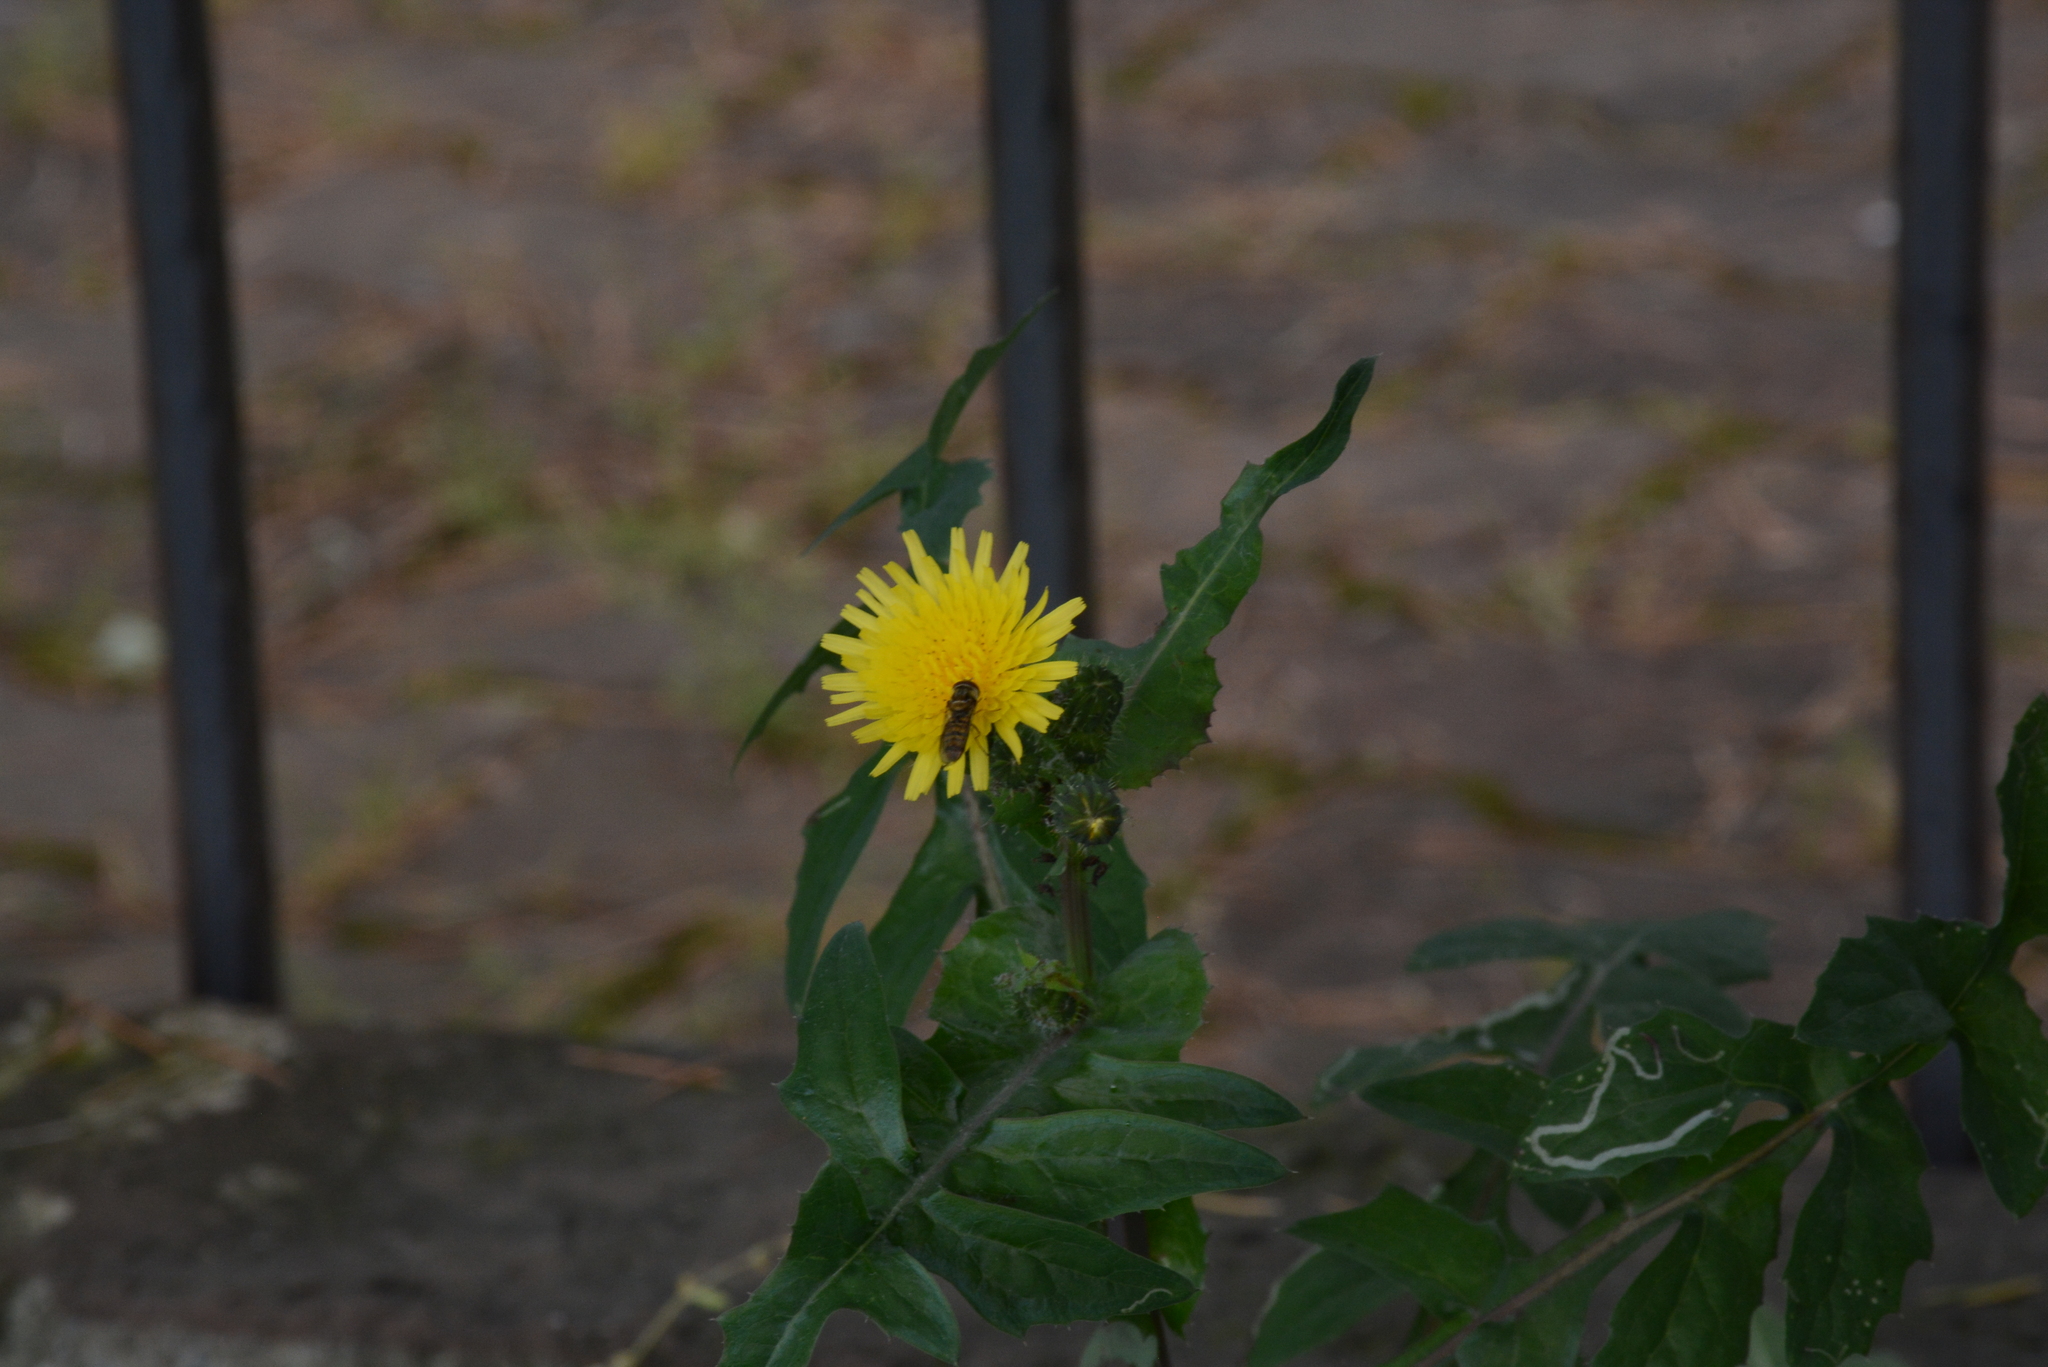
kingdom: Animalia
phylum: Arthropoda
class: Insecta
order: Diptera
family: Syrphidae
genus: Episyrphus
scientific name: Episyrphus balteatus
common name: Marmalade hoverfly
